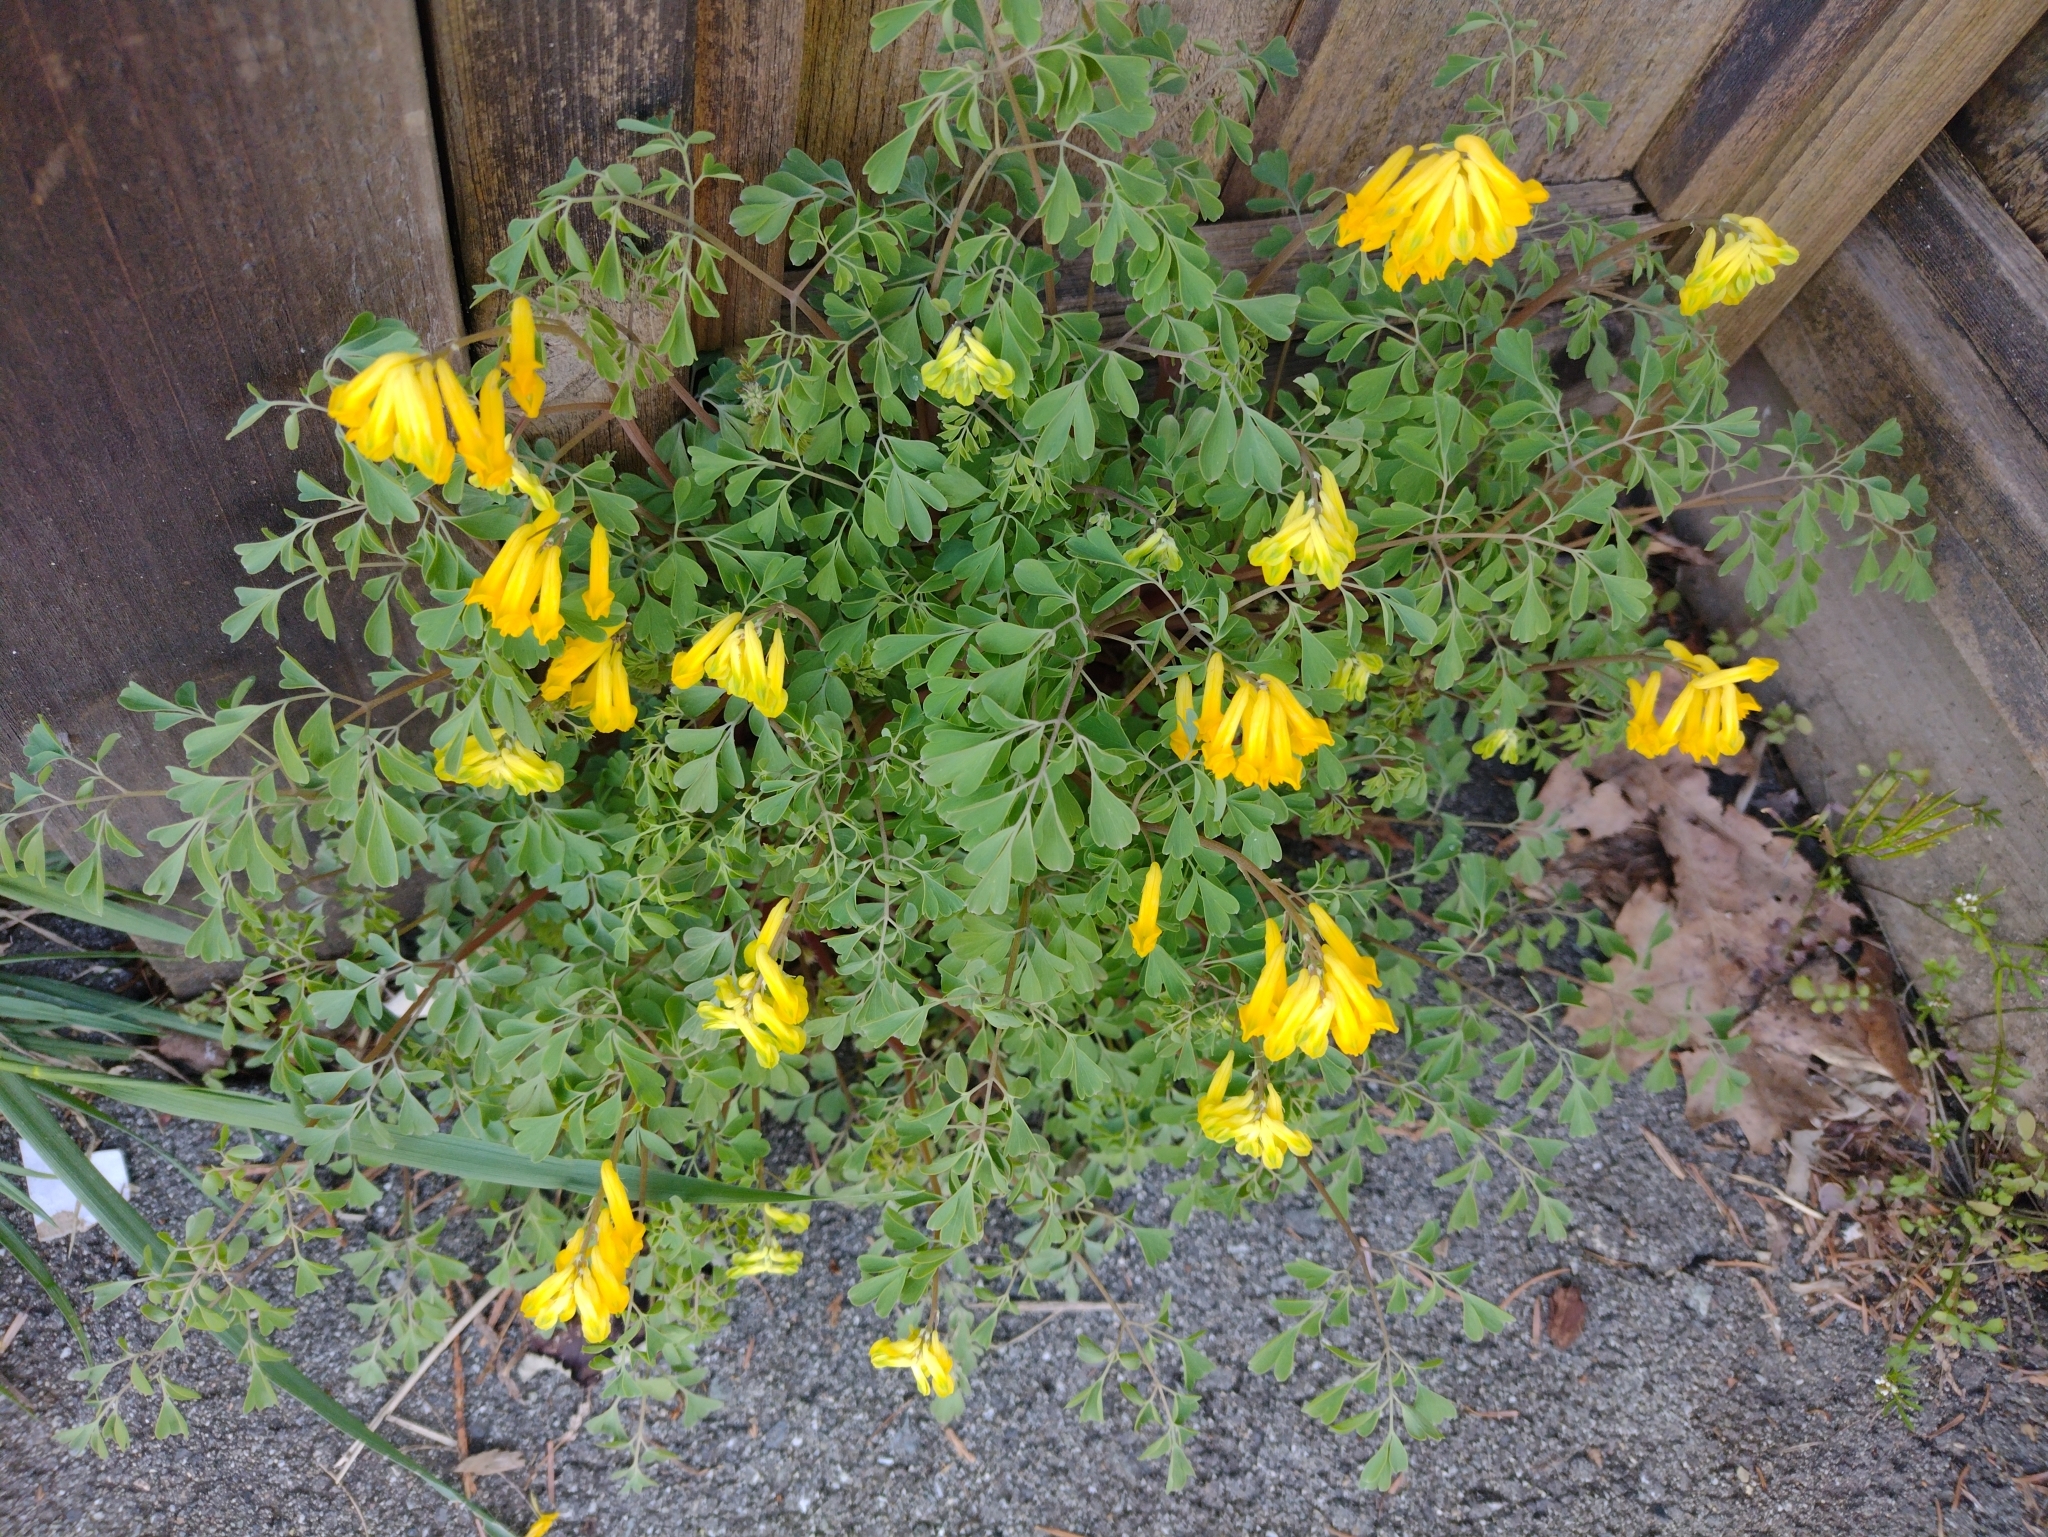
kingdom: Plantae
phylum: Tracheophyta
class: Magnoliopsida
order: Ranunculales
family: Papaveraceae
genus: Pseudofumaria
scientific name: Pseudofumaria lutea
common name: Yellow corydalis
